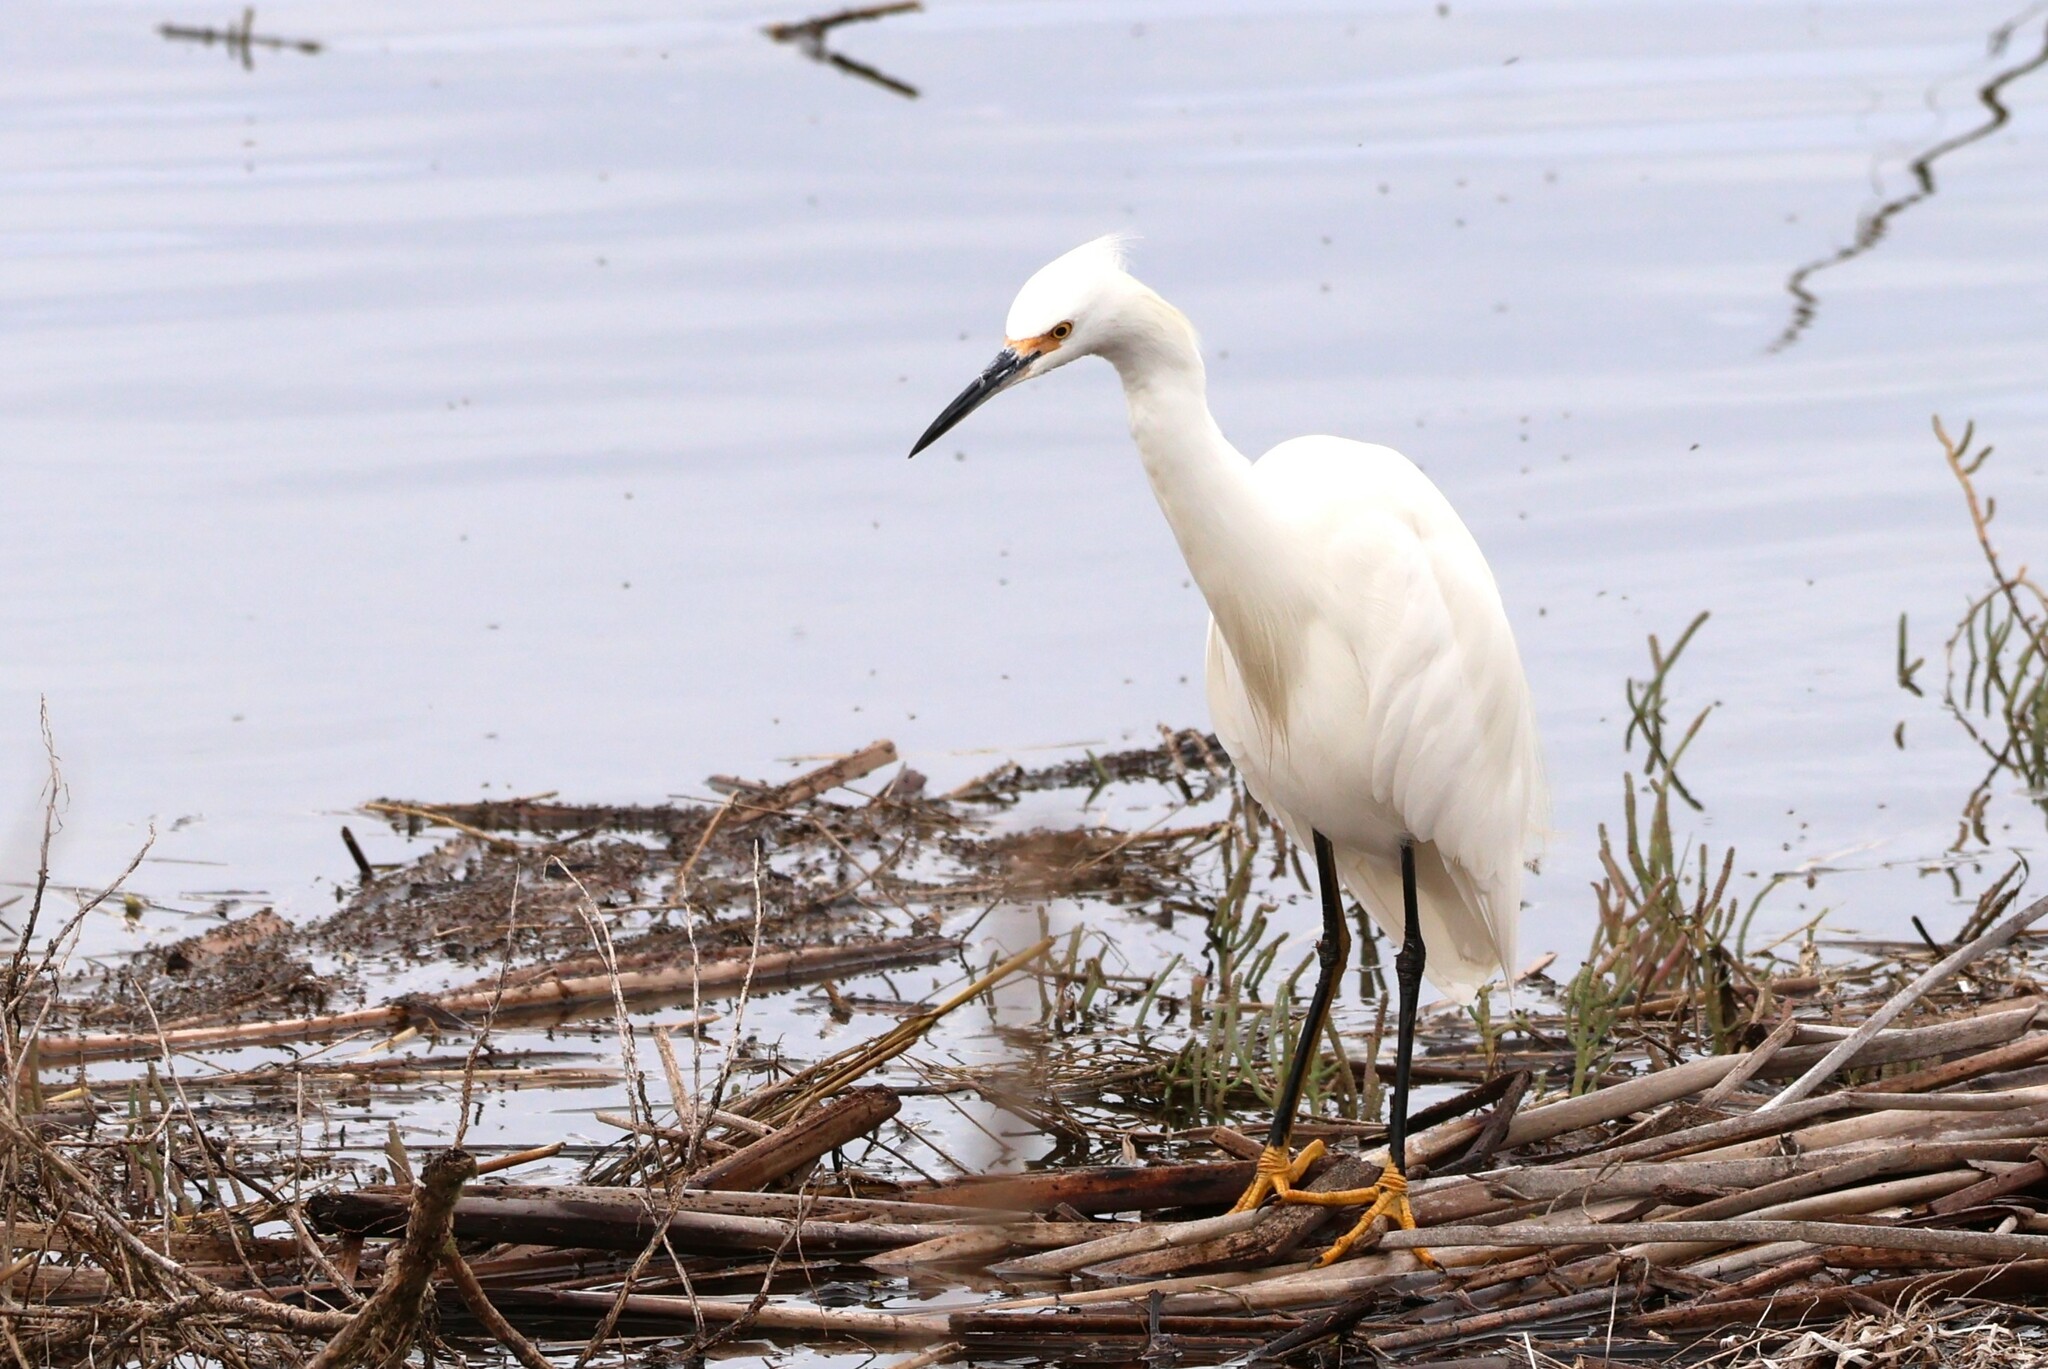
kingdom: Animalia
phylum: Chordata
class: Aves
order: Pelecaniformes
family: Ardeidae
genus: Egretta
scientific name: Egretta thula
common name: Snowy egret
